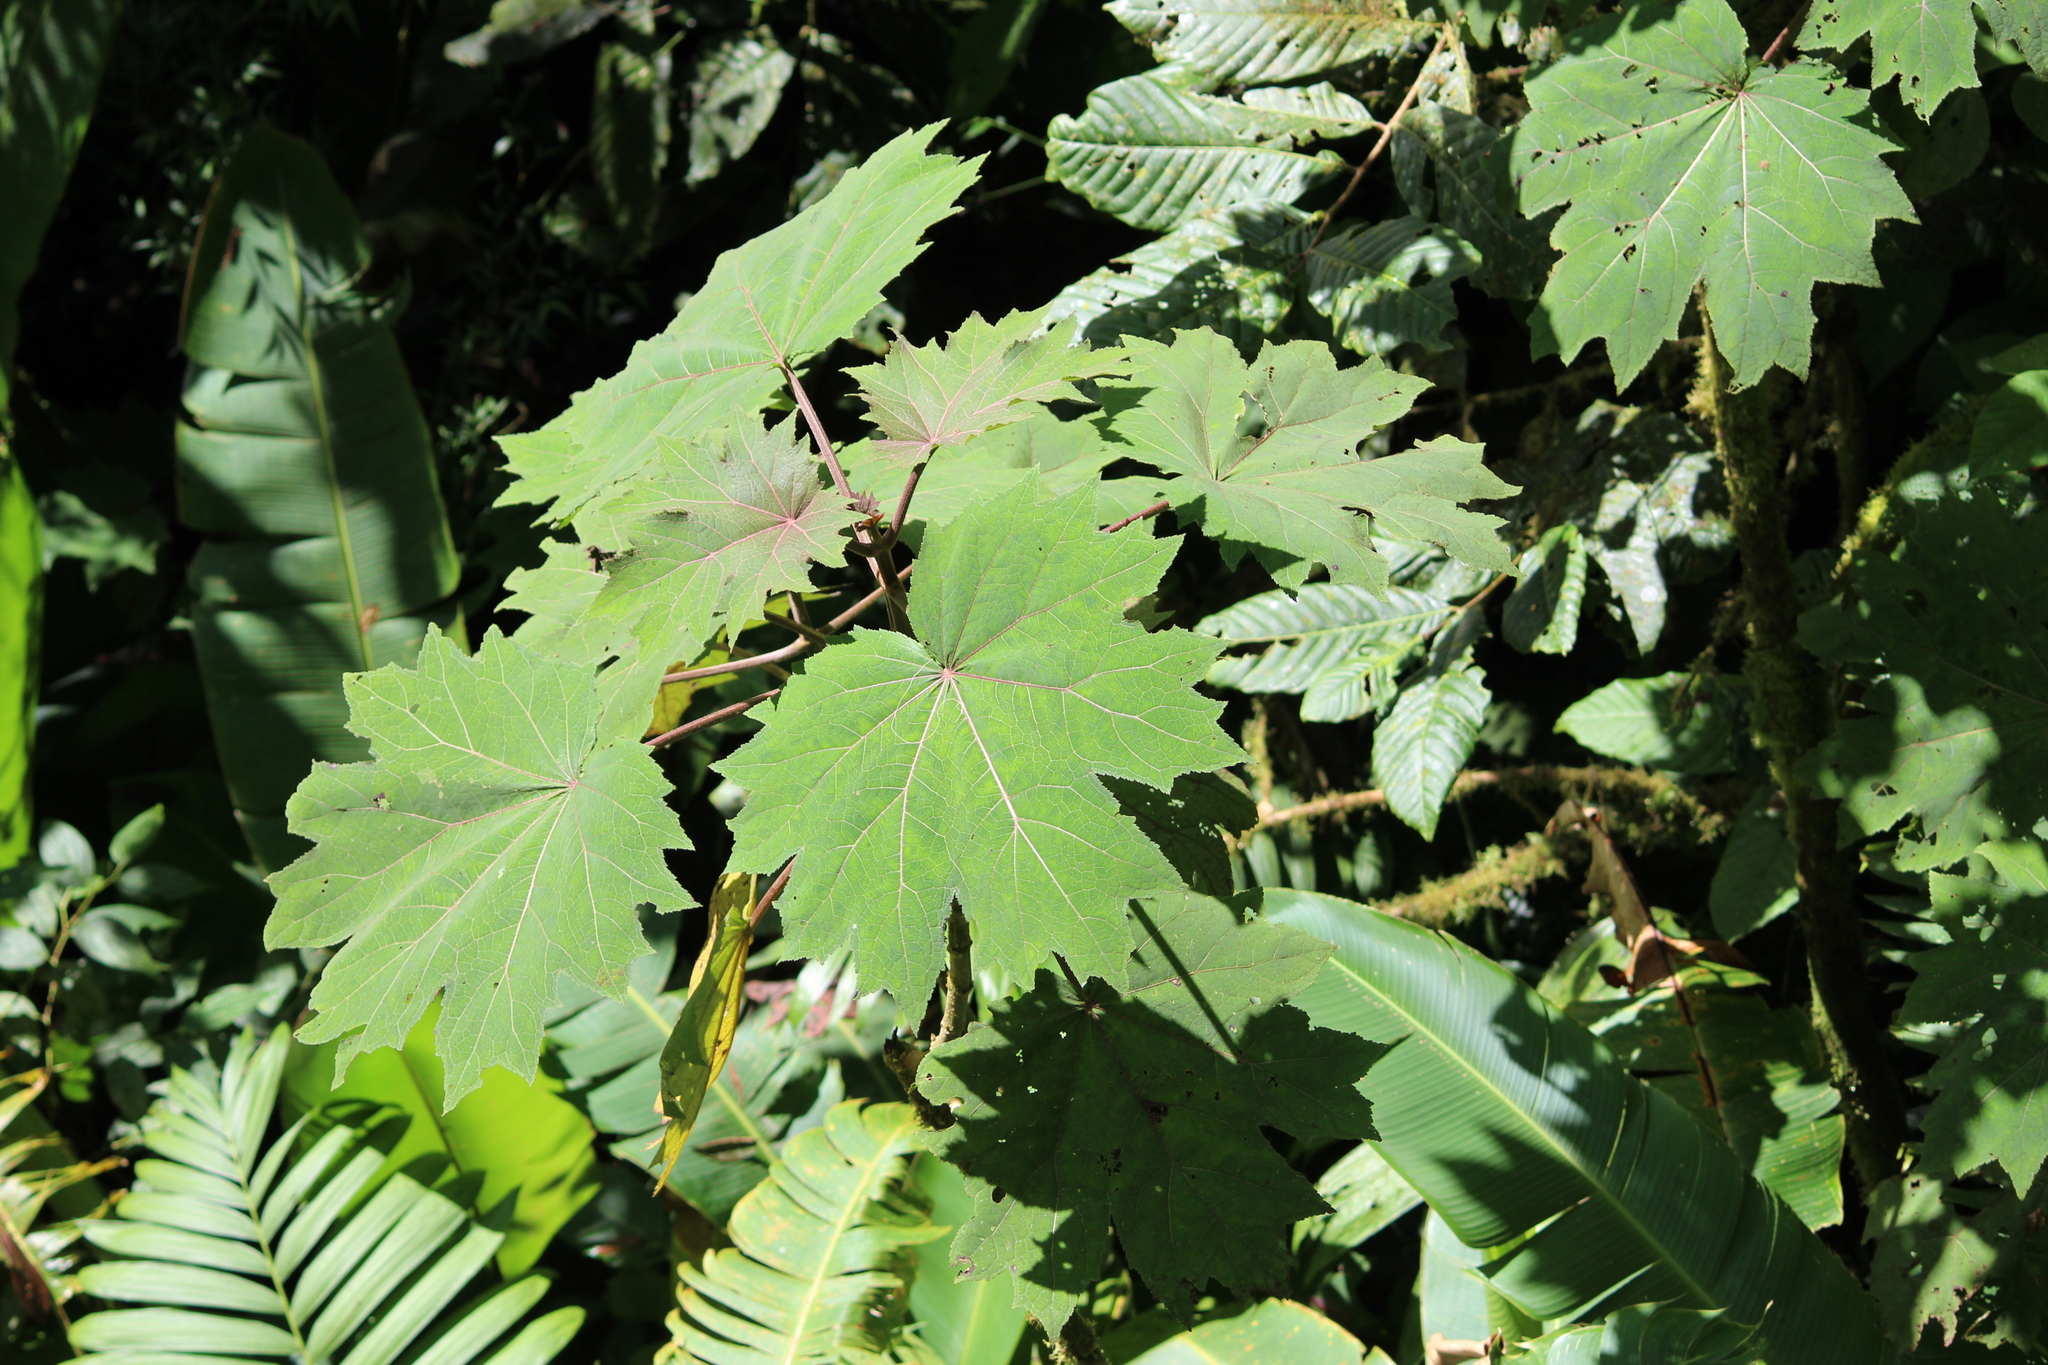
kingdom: Plantae
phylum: Tracheophyta
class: Magnoliopsida
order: Asterales
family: Asteraceae
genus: Neomirandea
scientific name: Neomirandea angularis
